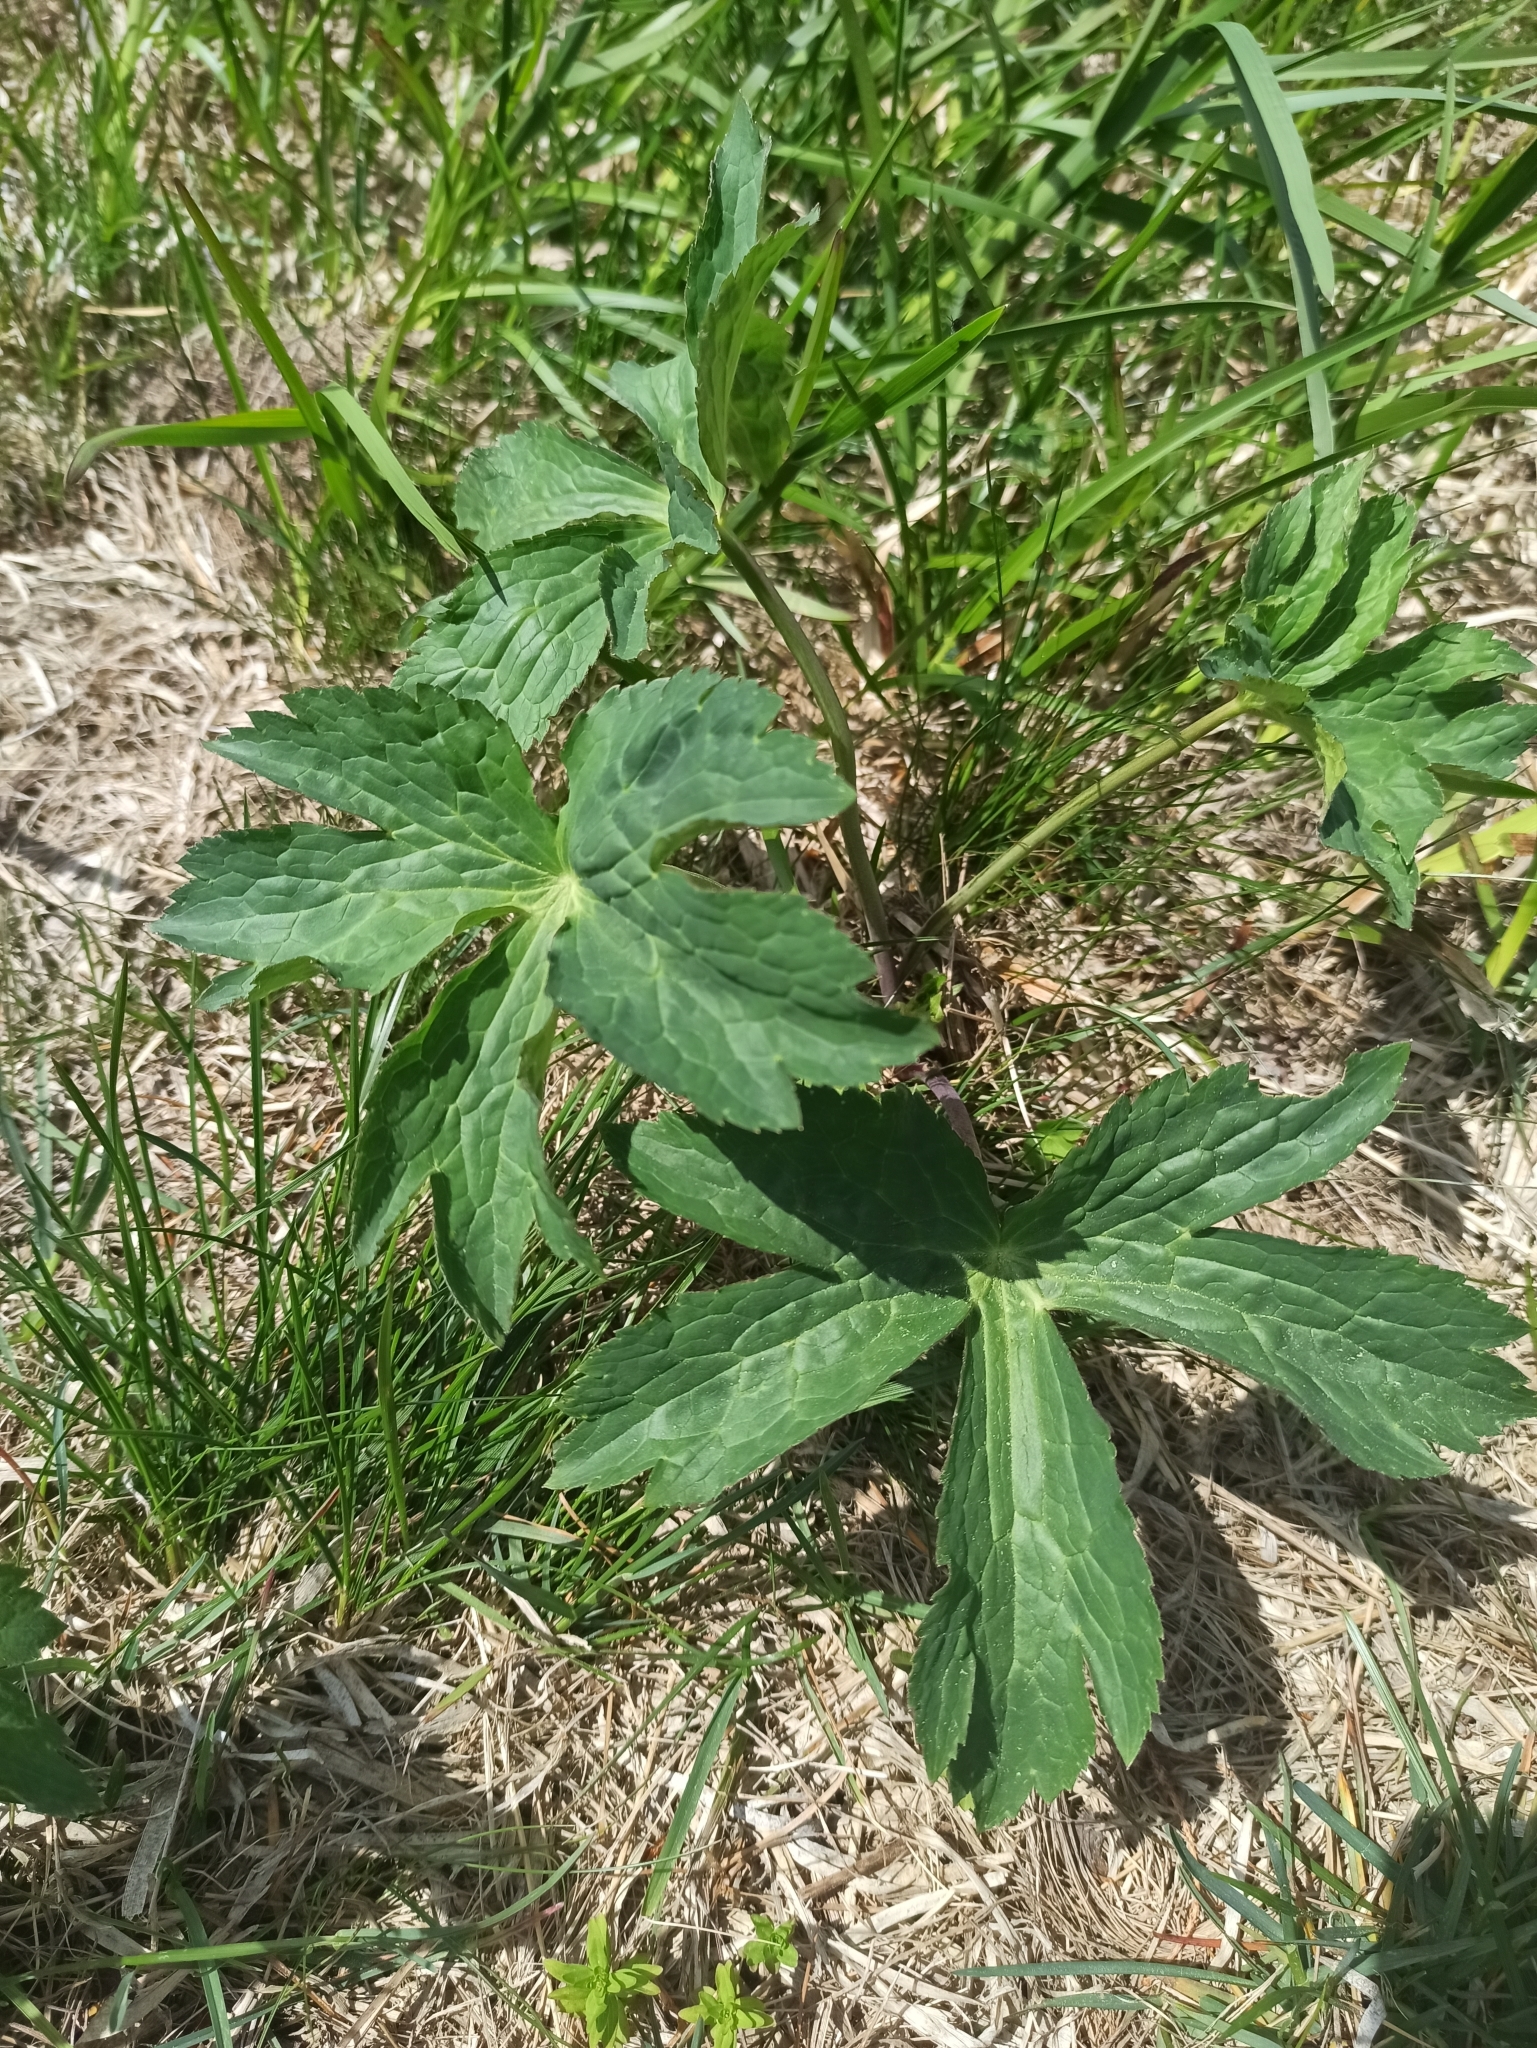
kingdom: Plantae
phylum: Tracheophyta
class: Magnoliopsida
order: Apiales
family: Apiaceae
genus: Astrantia
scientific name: Astrantia major
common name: Greater masterwort
